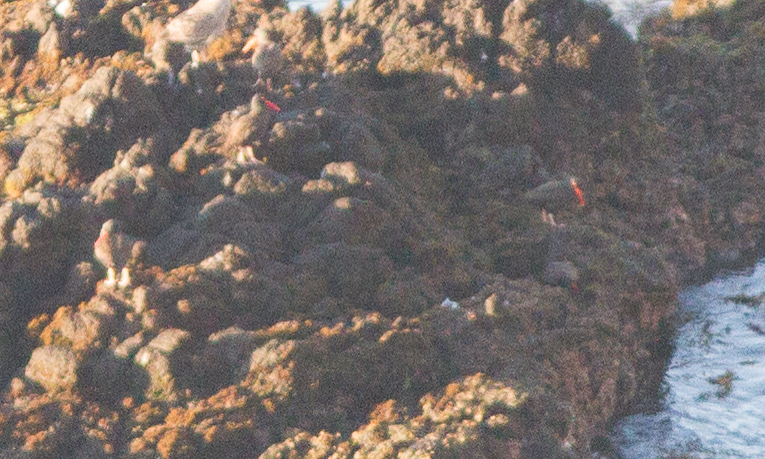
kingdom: Animalia
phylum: Chordata
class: Aves
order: Charadriiformes
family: Haematopodidae
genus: Haematopus
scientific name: Haematopus bachmani
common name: Black oystercatcher
